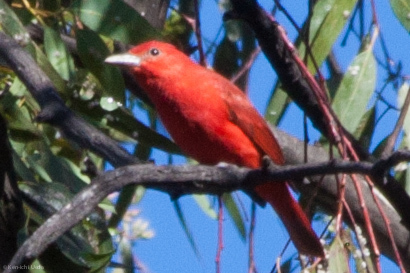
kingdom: Animalia
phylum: Chordata
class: Aves
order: Passeriformes
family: Cardinalidae
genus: Piranga
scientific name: Piranga rubra
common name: Summer tanager
